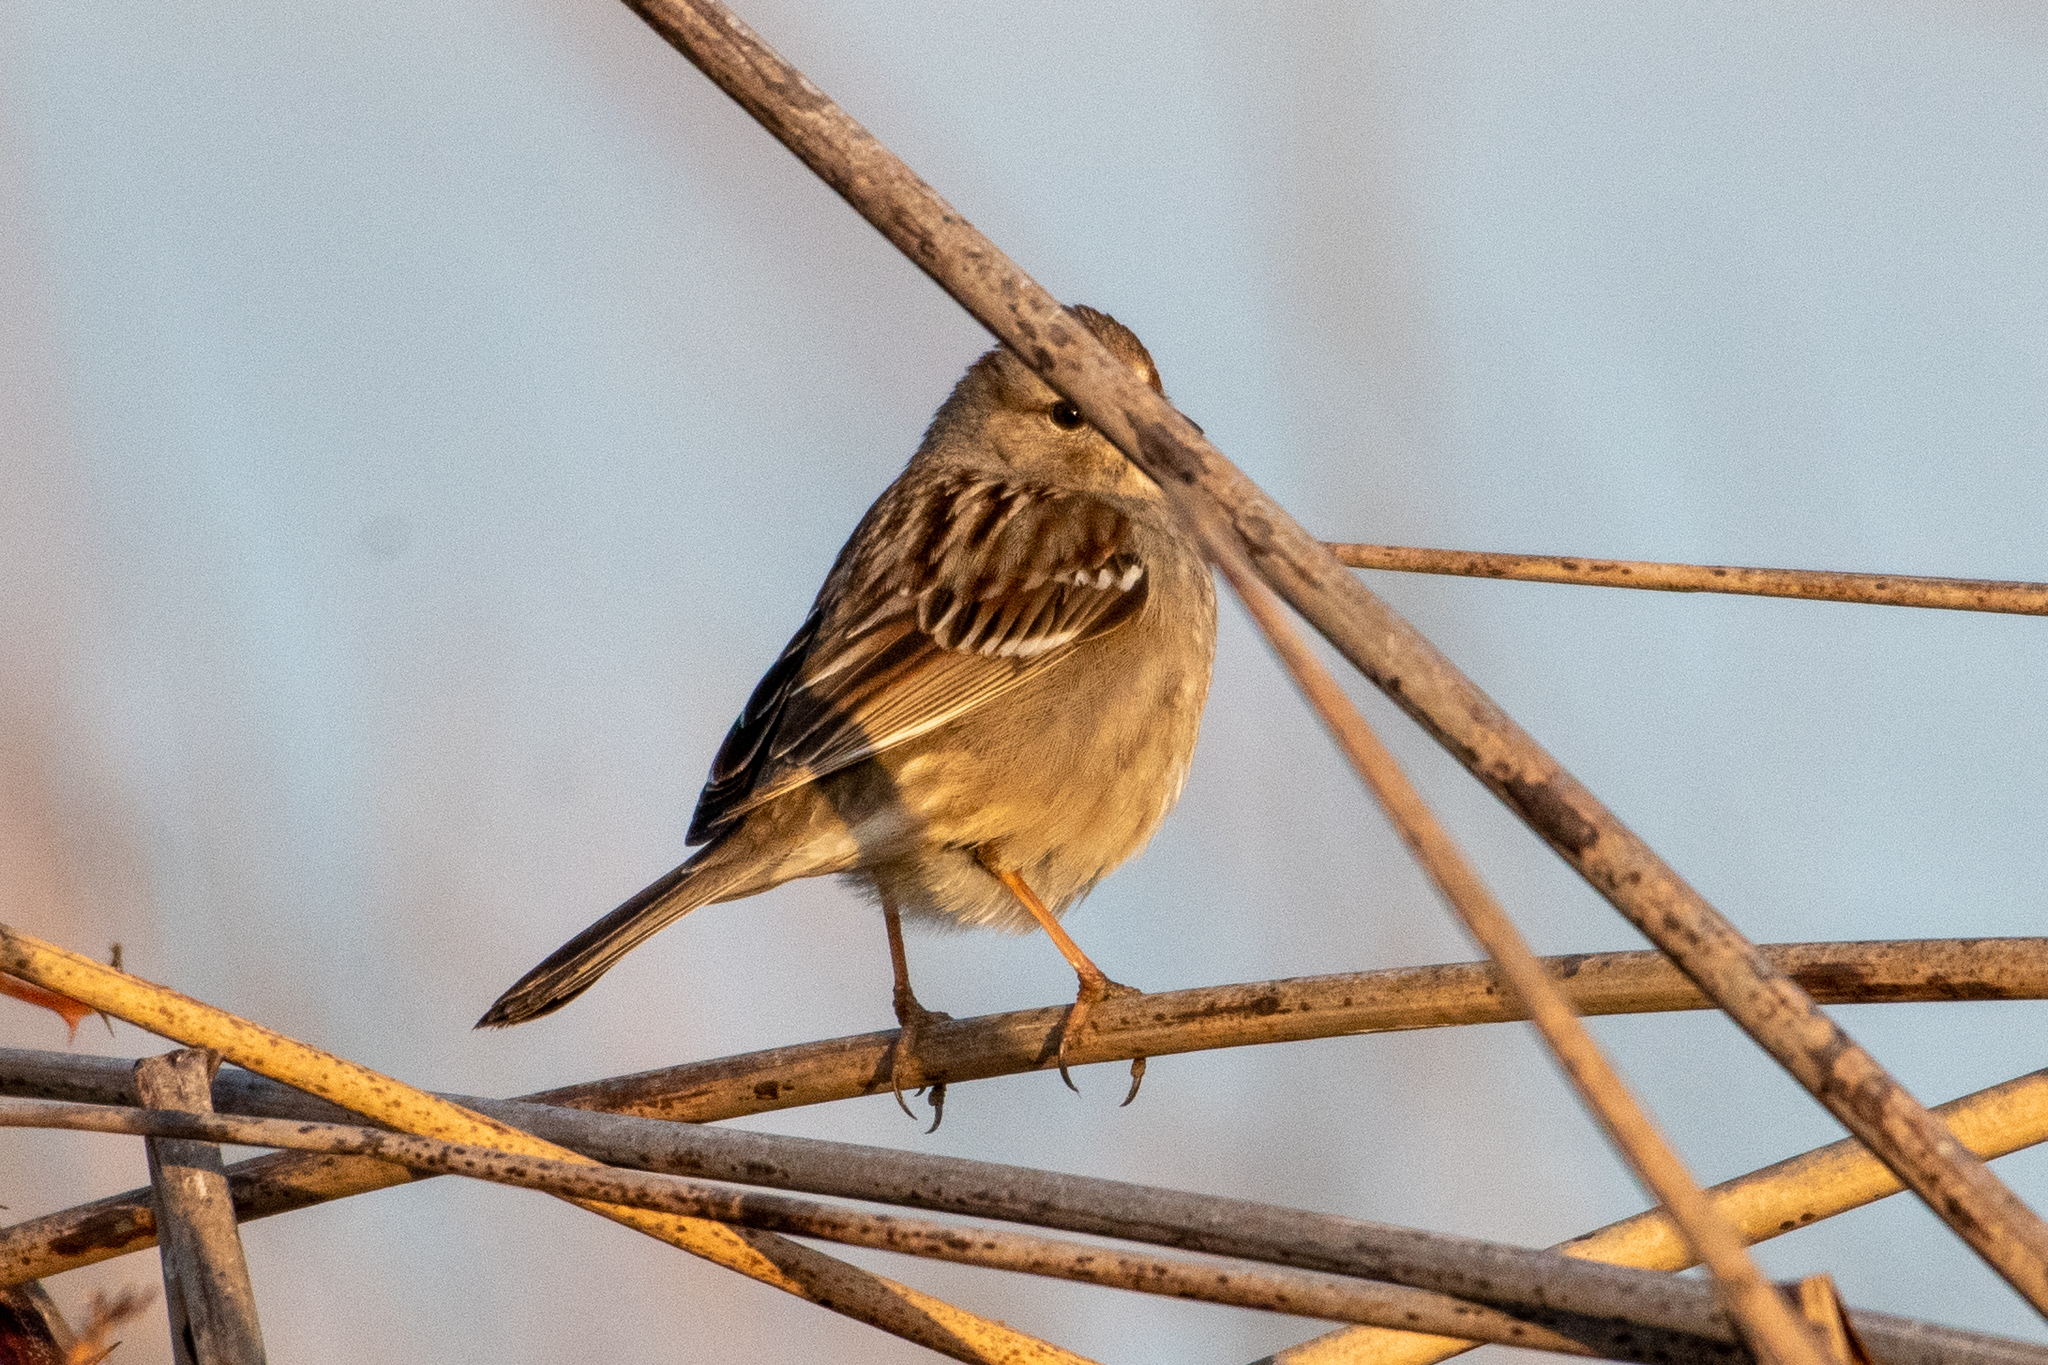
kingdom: Animalia
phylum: Chordata
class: Aves
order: Passeriformes
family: Passerellidae
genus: Zonotrichia
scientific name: Zonotrichia atricapilla
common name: Golden-crowned sparrow
